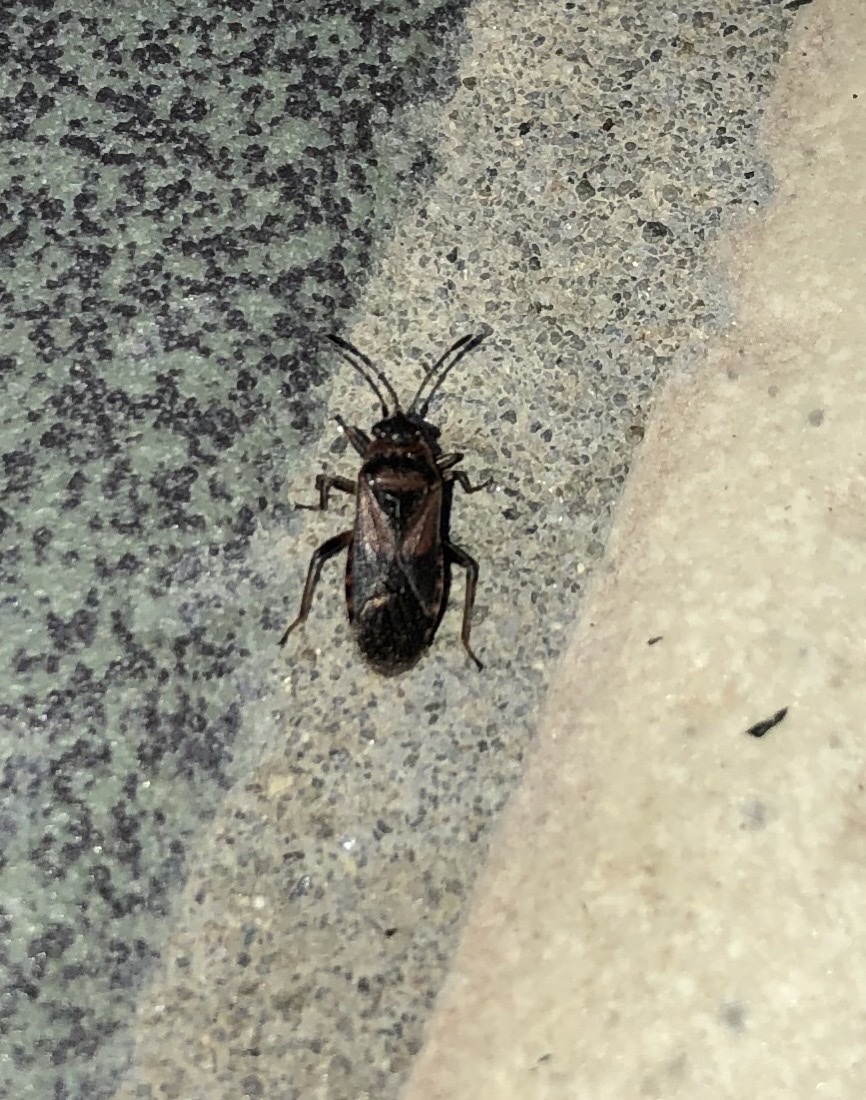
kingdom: Animalia
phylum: Arthropoda
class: Insecta
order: Hemiptera
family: Lygaeidae
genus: Arocatus
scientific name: Arocatus melanocephalus
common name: Lygaeid bug
